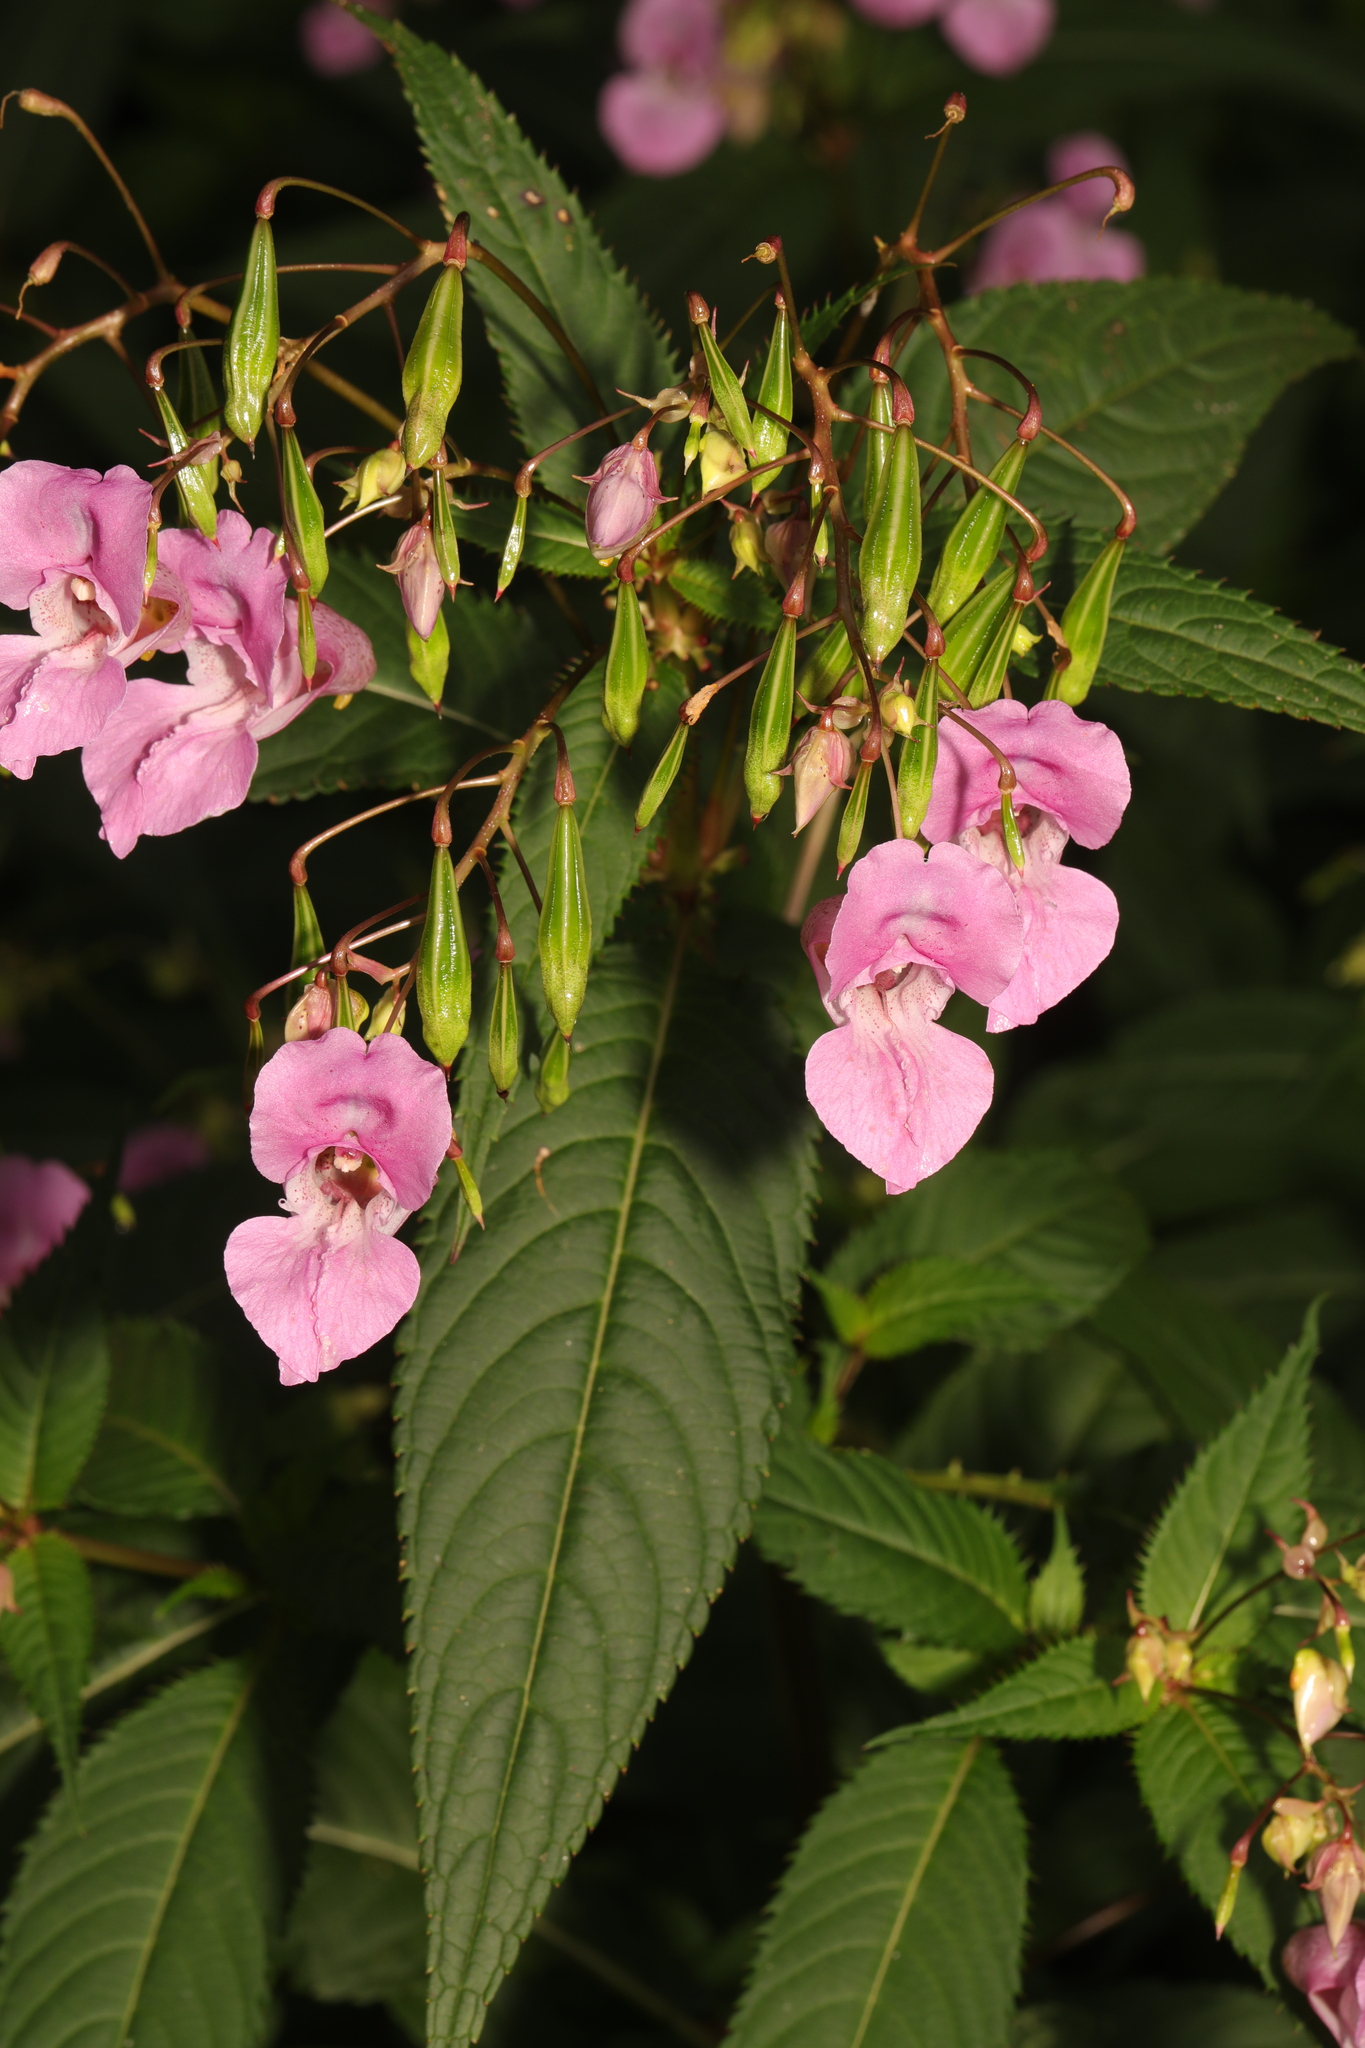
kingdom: Plantae
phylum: Tracheophyta
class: Magnoliopsida
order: Ericales
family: Balsaminaceae
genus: Impatiens
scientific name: Impatiens glandulifera
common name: Himalayan balsam
